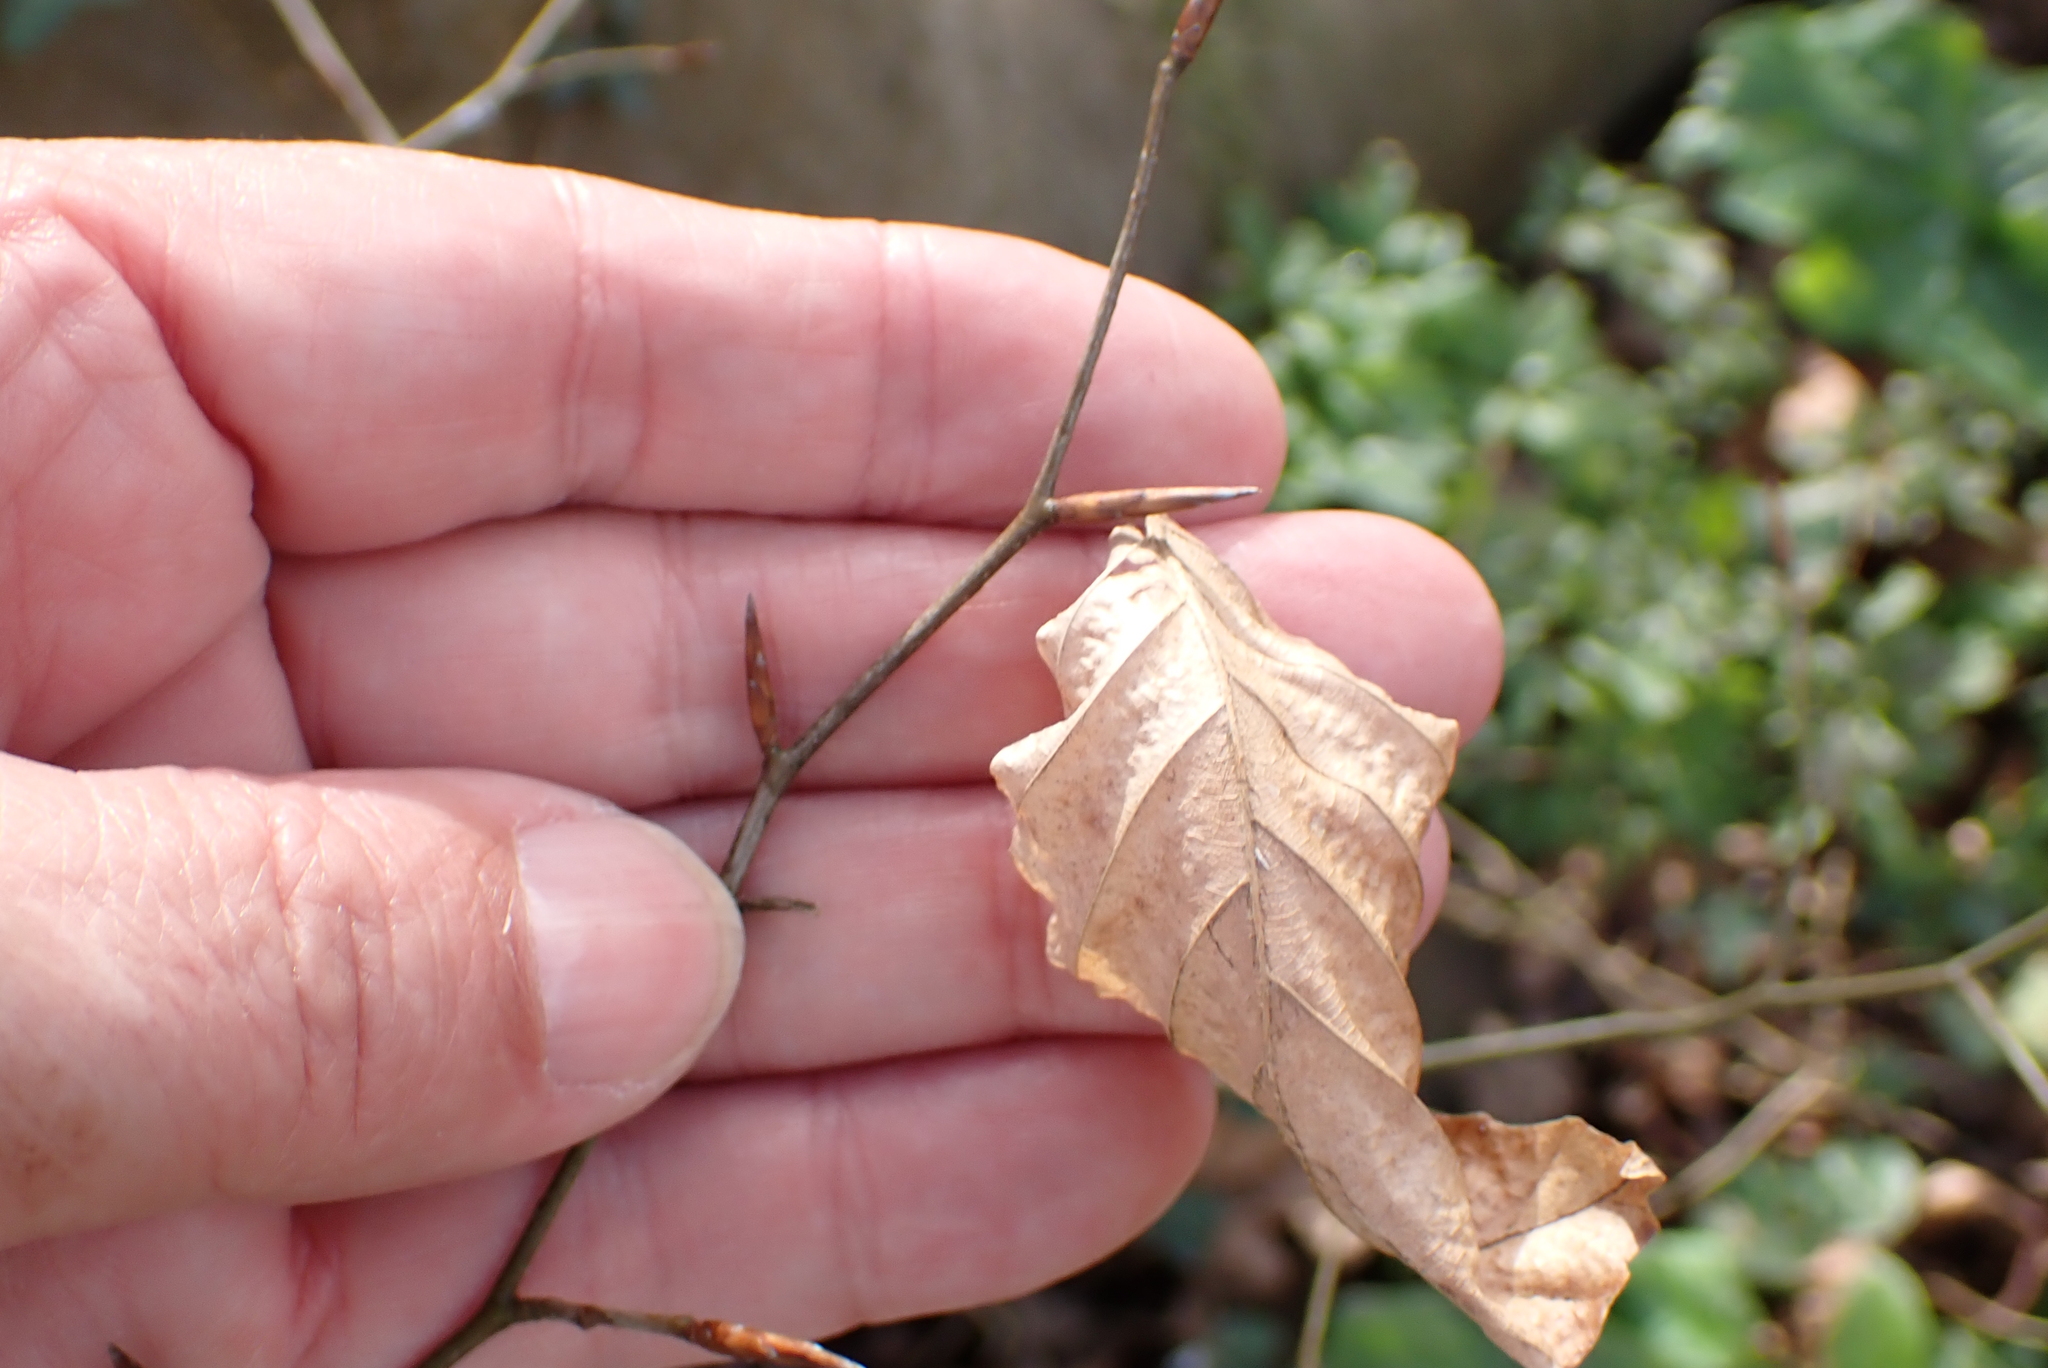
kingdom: Plantae
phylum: Tracheophyta
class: Magnoliopsida
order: Fagales
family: Fagaceae
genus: Fagus
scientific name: Fagus sylvatica
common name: Beech
